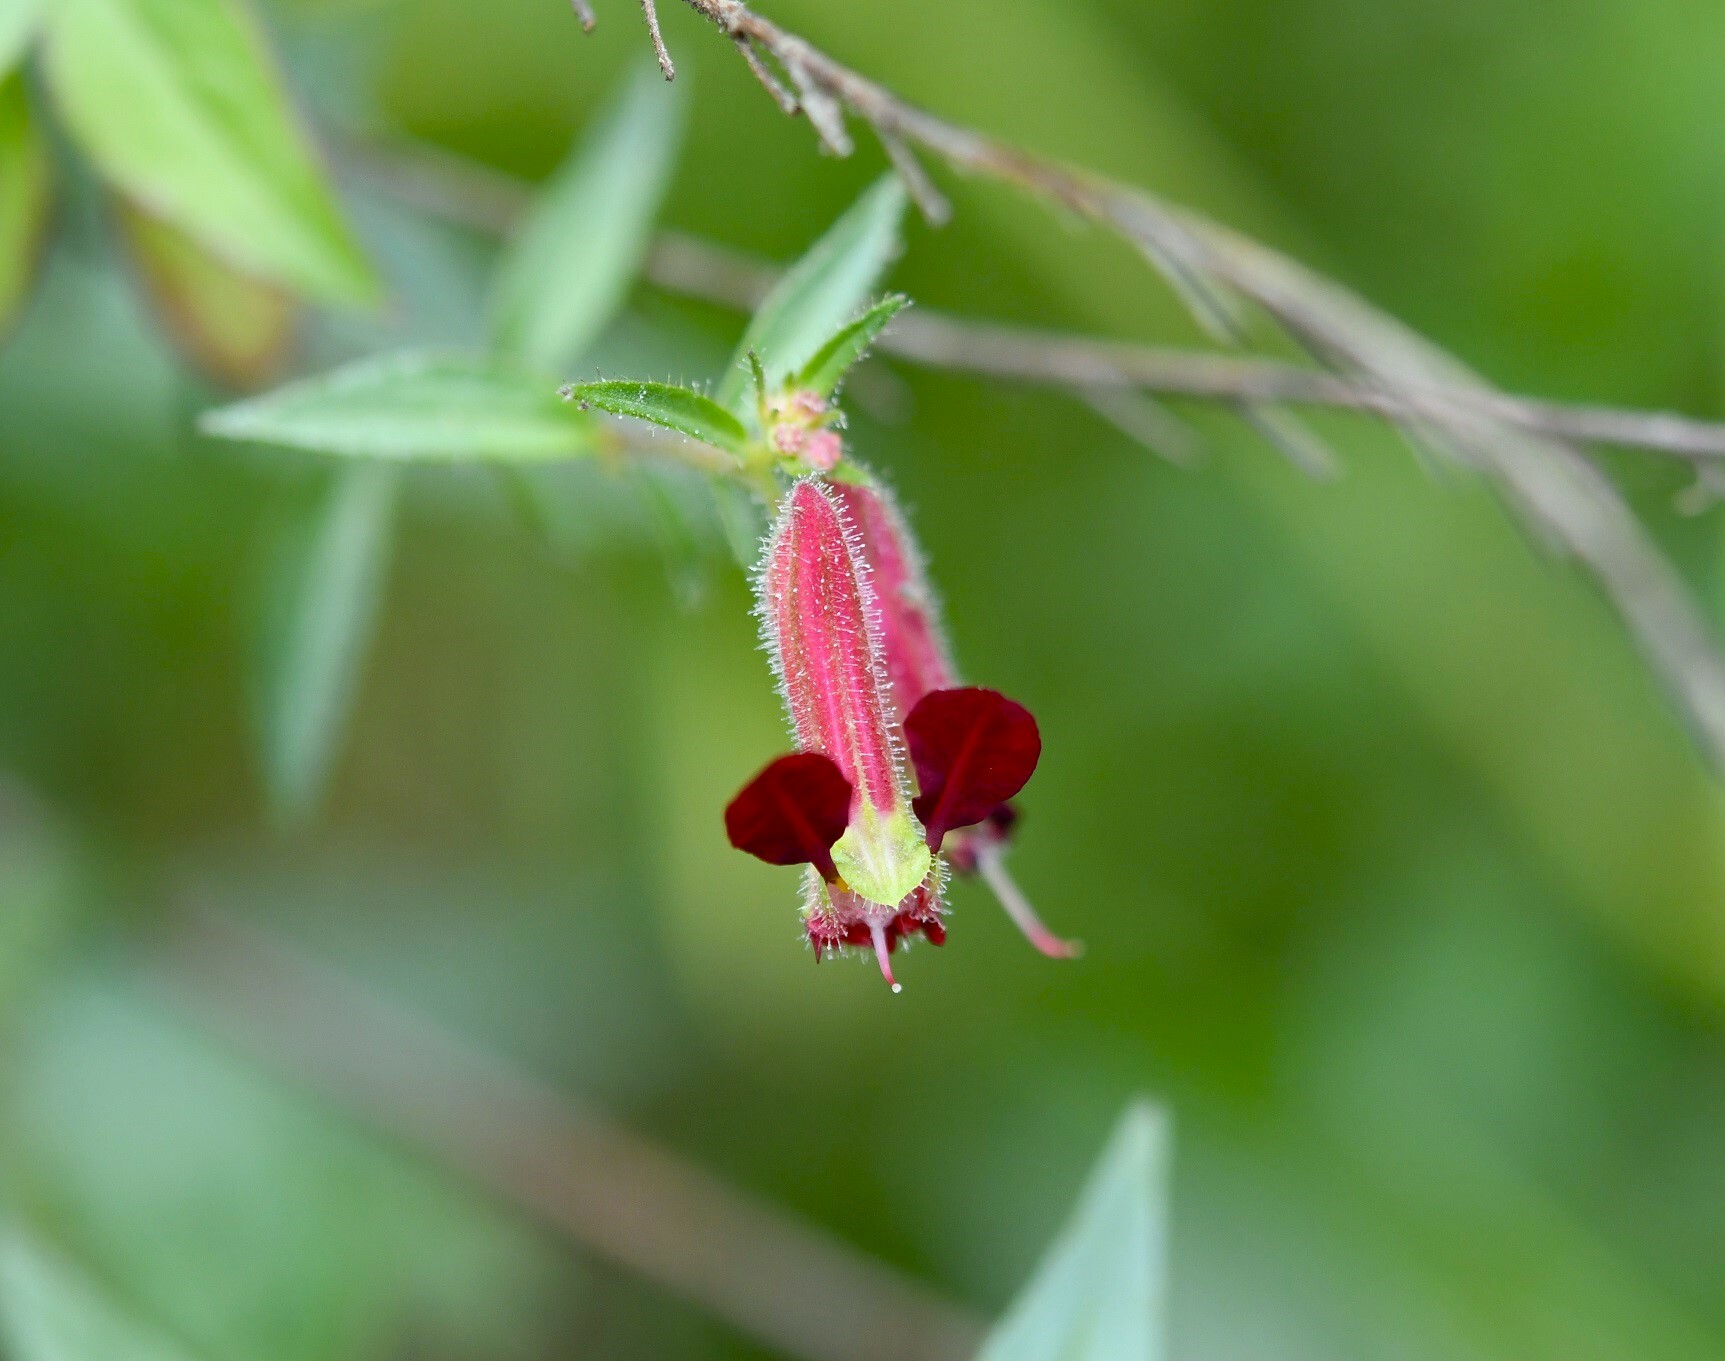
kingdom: Plantae
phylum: Tracheophyta
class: Magnoliopsida
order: Myrtales
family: Lythraceae
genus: Cuphea
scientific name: Cuphea hookeriana
